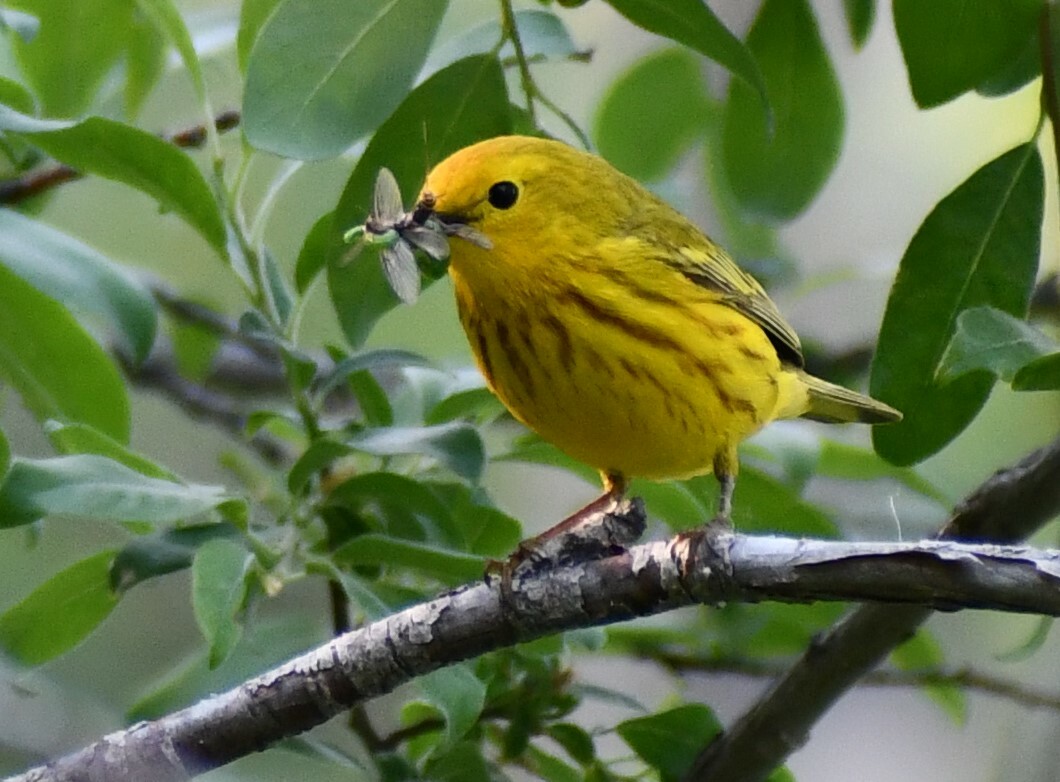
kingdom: Animalia
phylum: Chordata
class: Aves
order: Passeriformes
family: Parulidae
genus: Setophaga
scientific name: Setophaga petechia
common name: Yellow warbler
